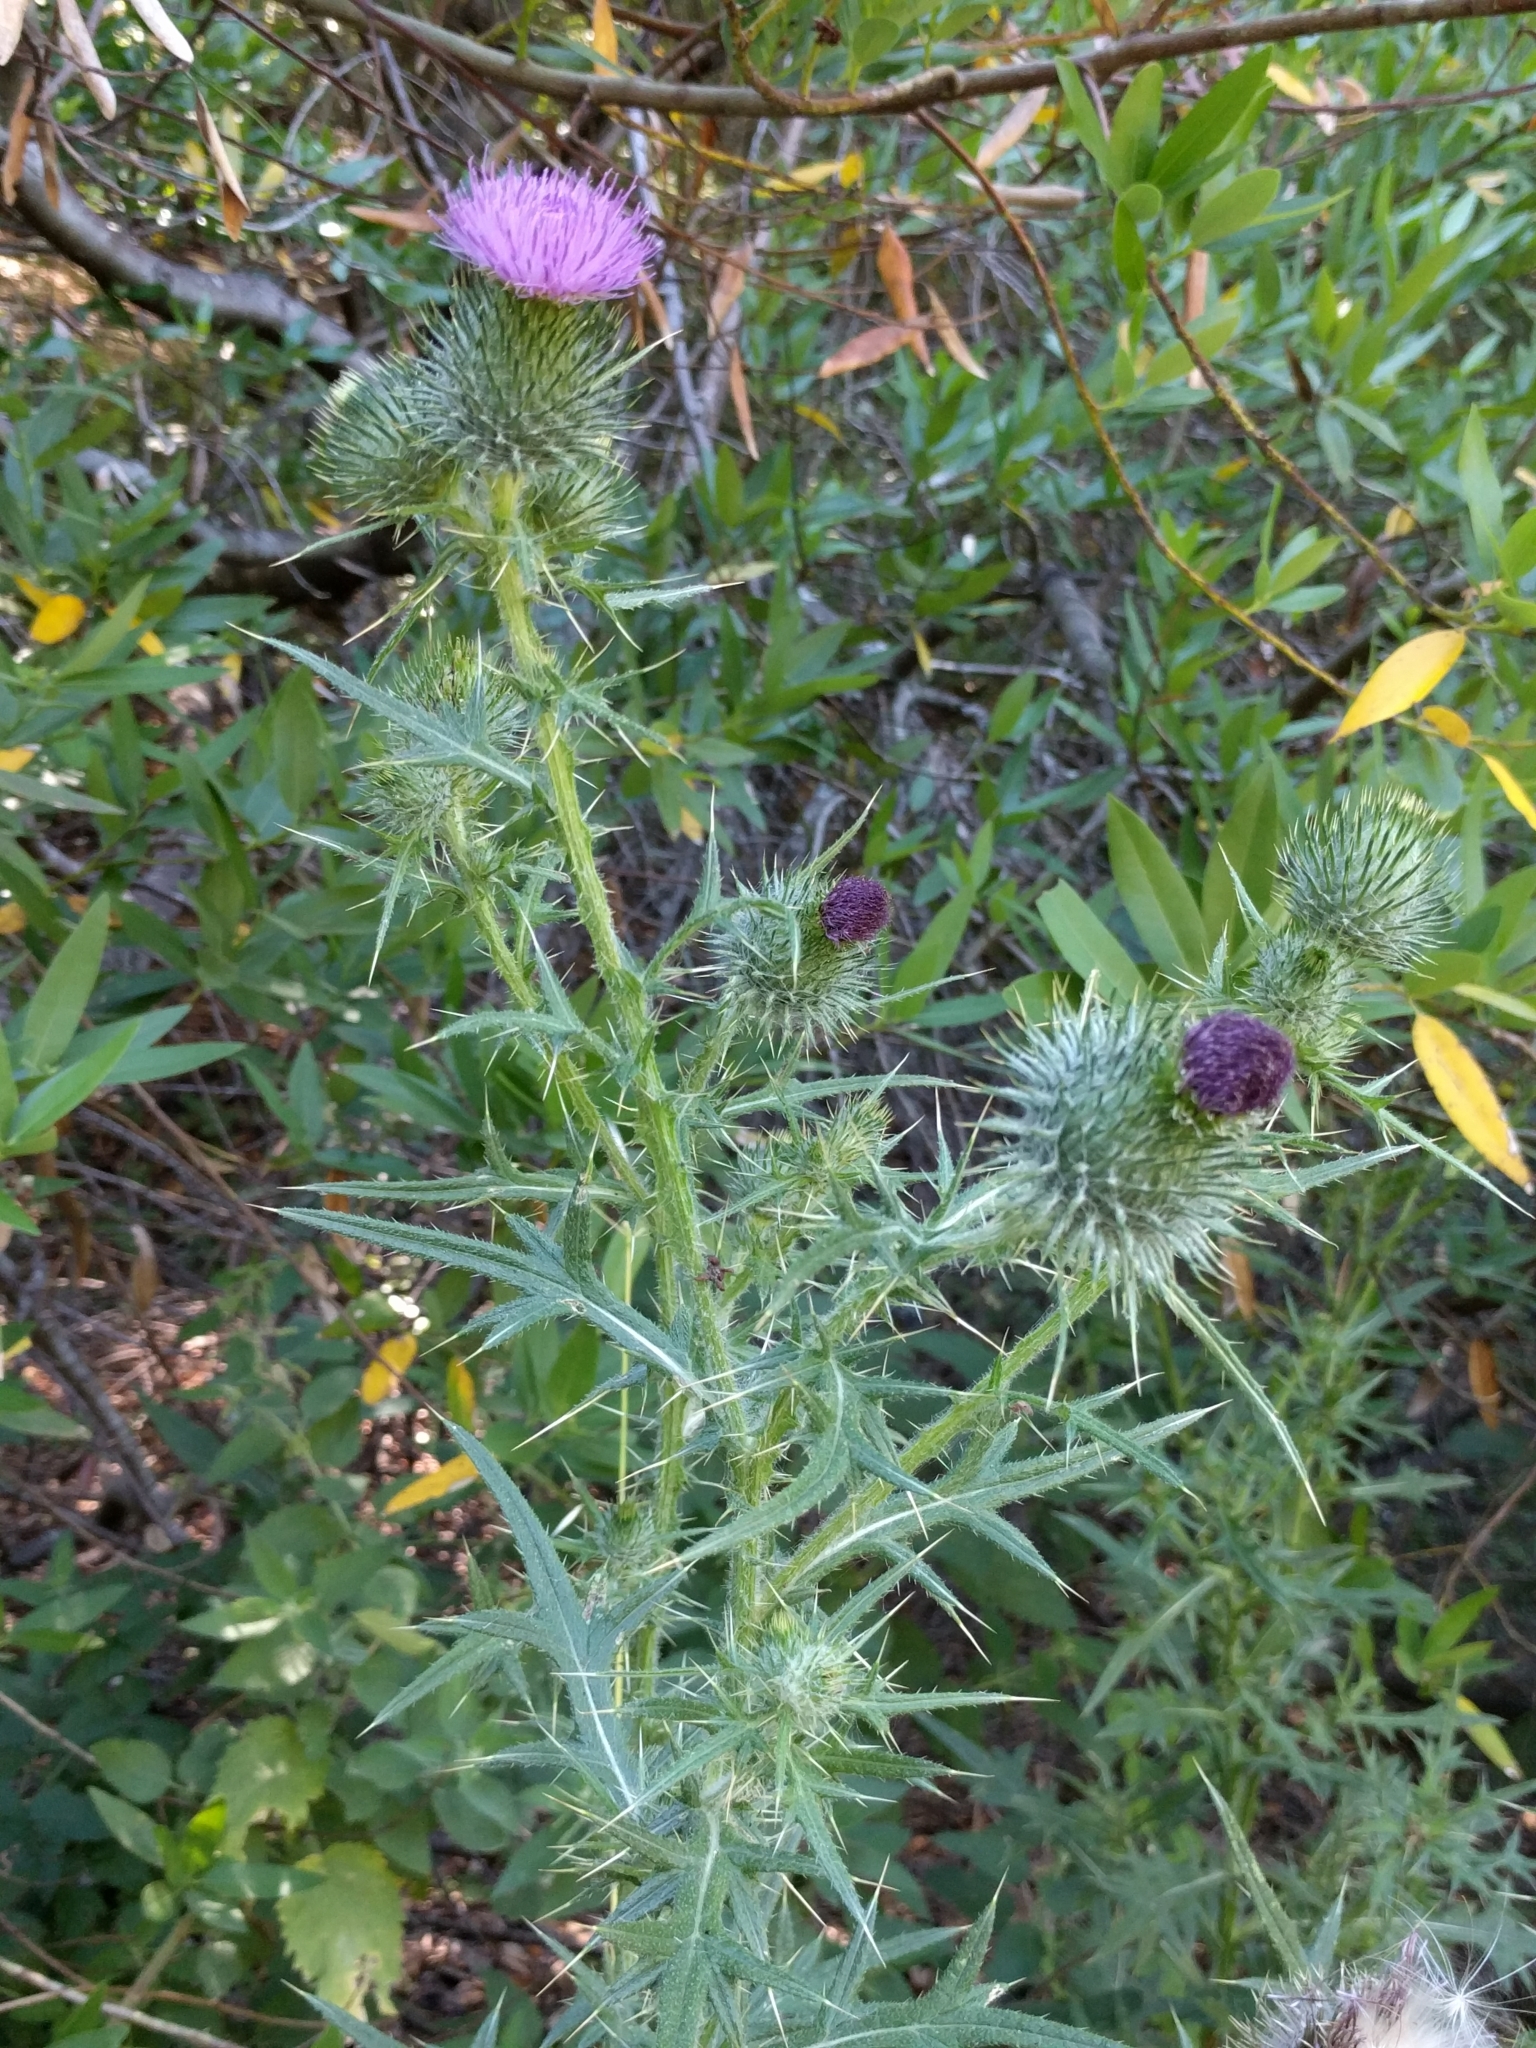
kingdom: Plantae
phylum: Tracheophyta
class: Magnoliopsida
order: Asterales
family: Asteraceae
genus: Cirsium
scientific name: Cirsium vulgare
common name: Bull thistle
